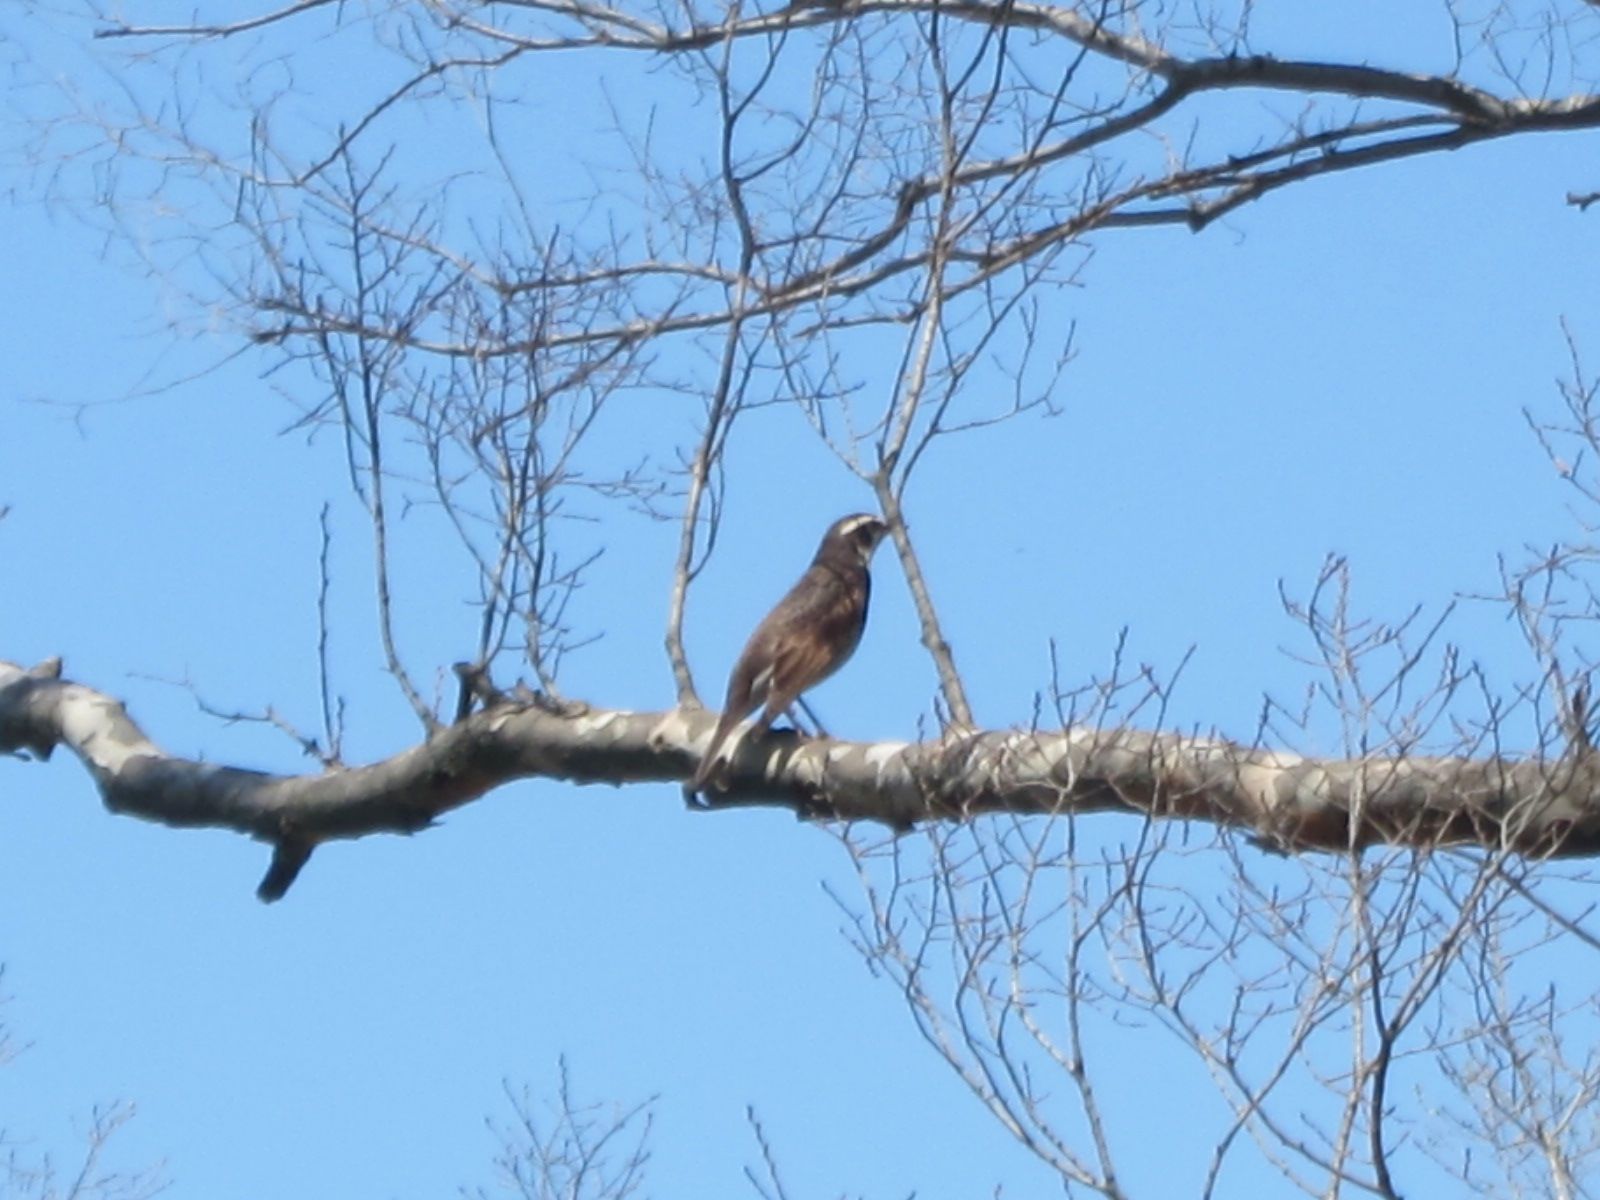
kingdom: Animalia
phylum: Chordata
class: Aves
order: Passeriformes
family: Turdidae
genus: Turdus
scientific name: Turdus eunomus
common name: Dusky thrush
